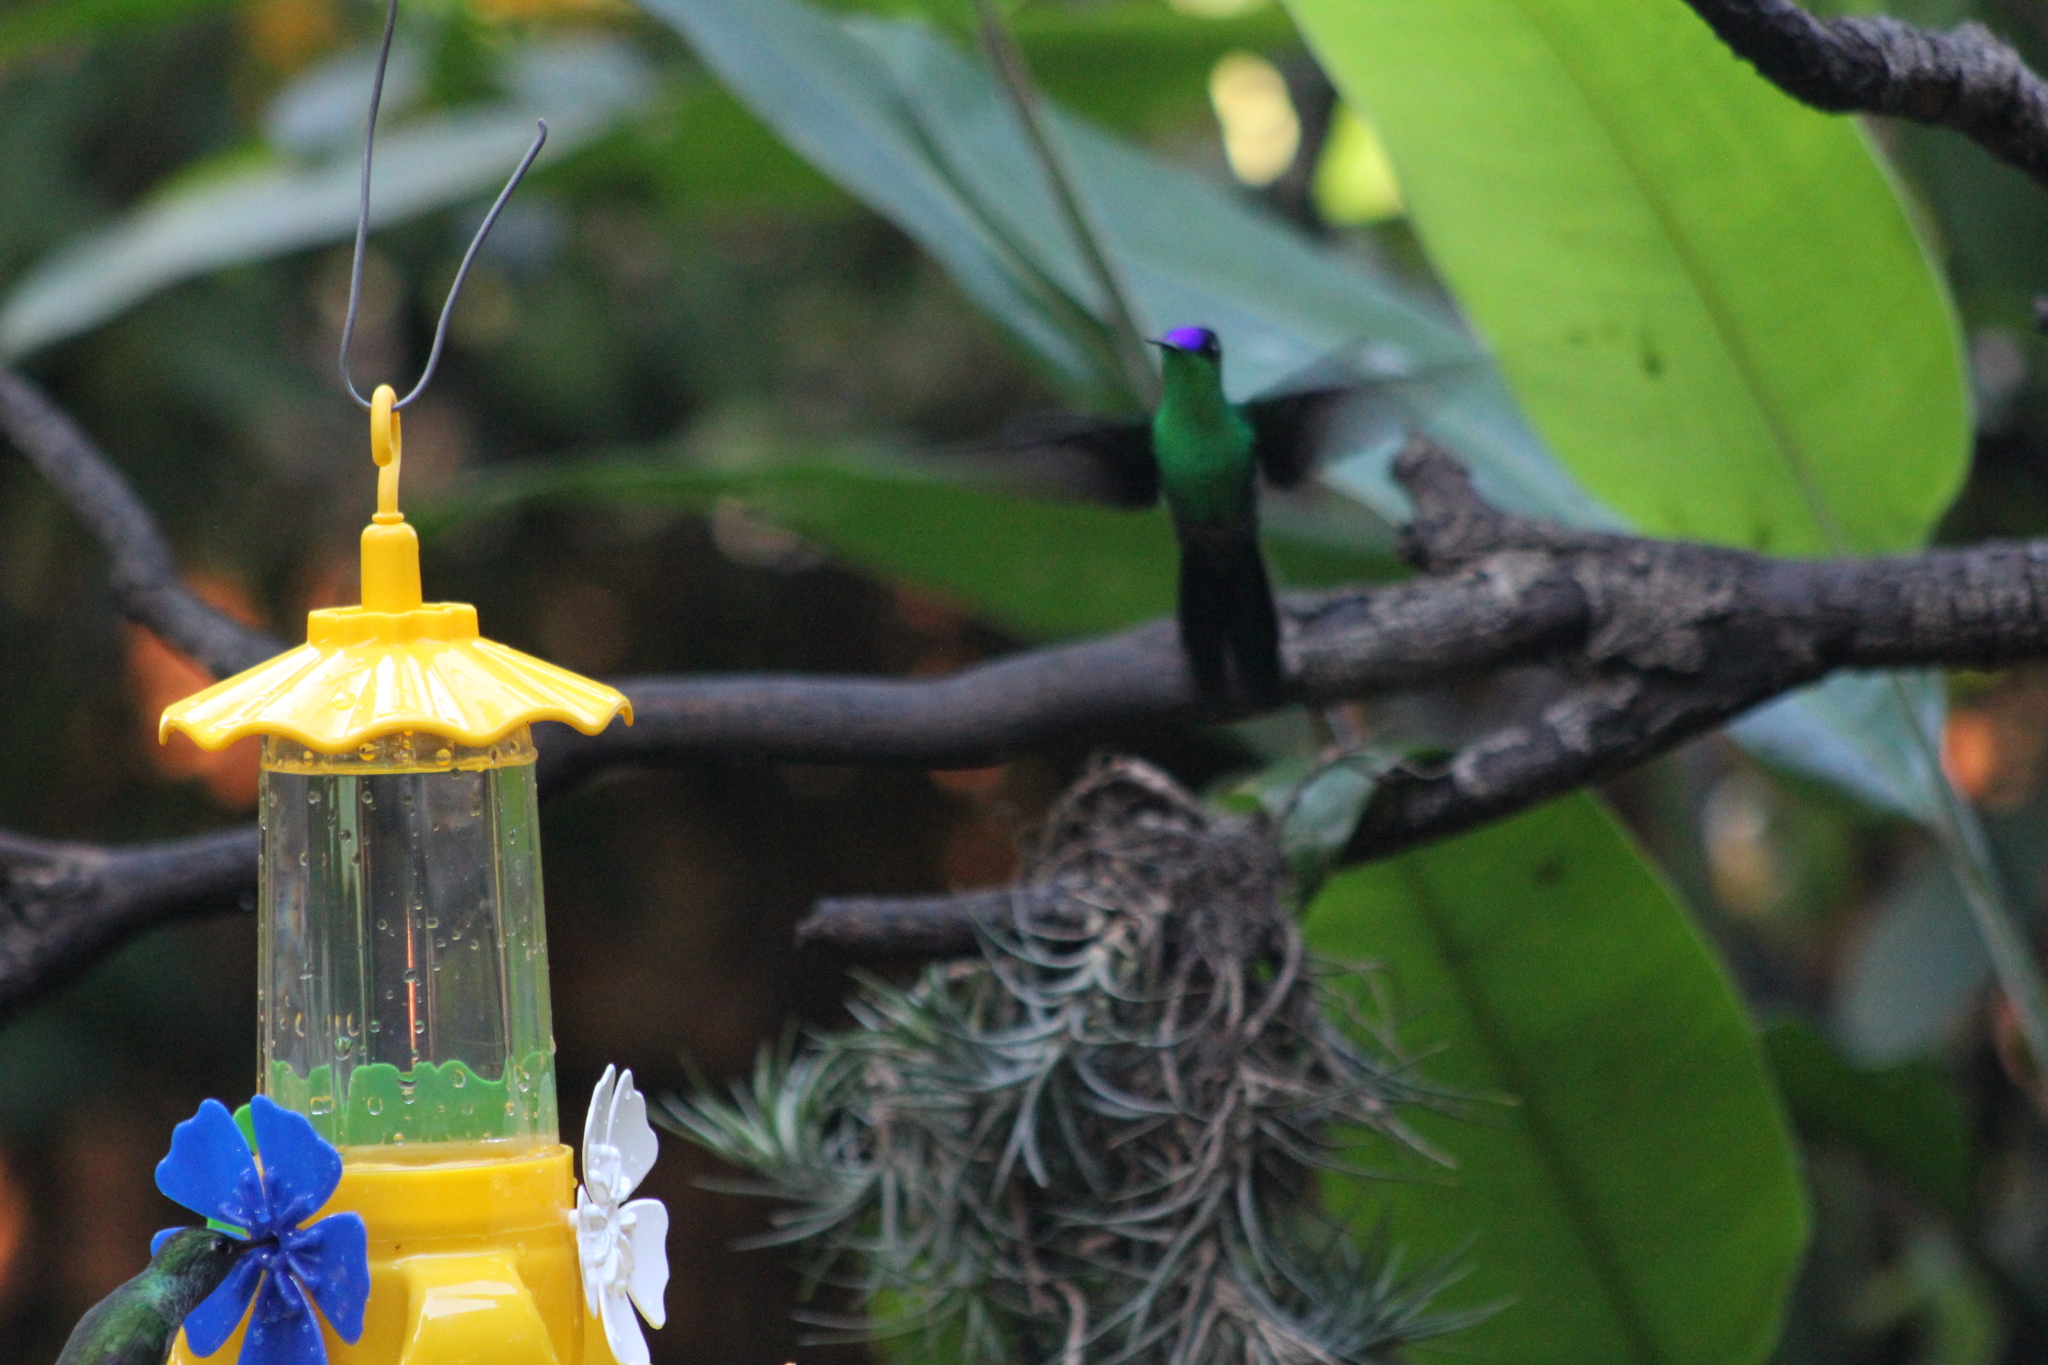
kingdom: Animalia
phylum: Chordata
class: Aves
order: Apodiformes
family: Trochilidae
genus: Thalurania
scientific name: Thalurania glaucopis
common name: Violet-capped woodnymph
